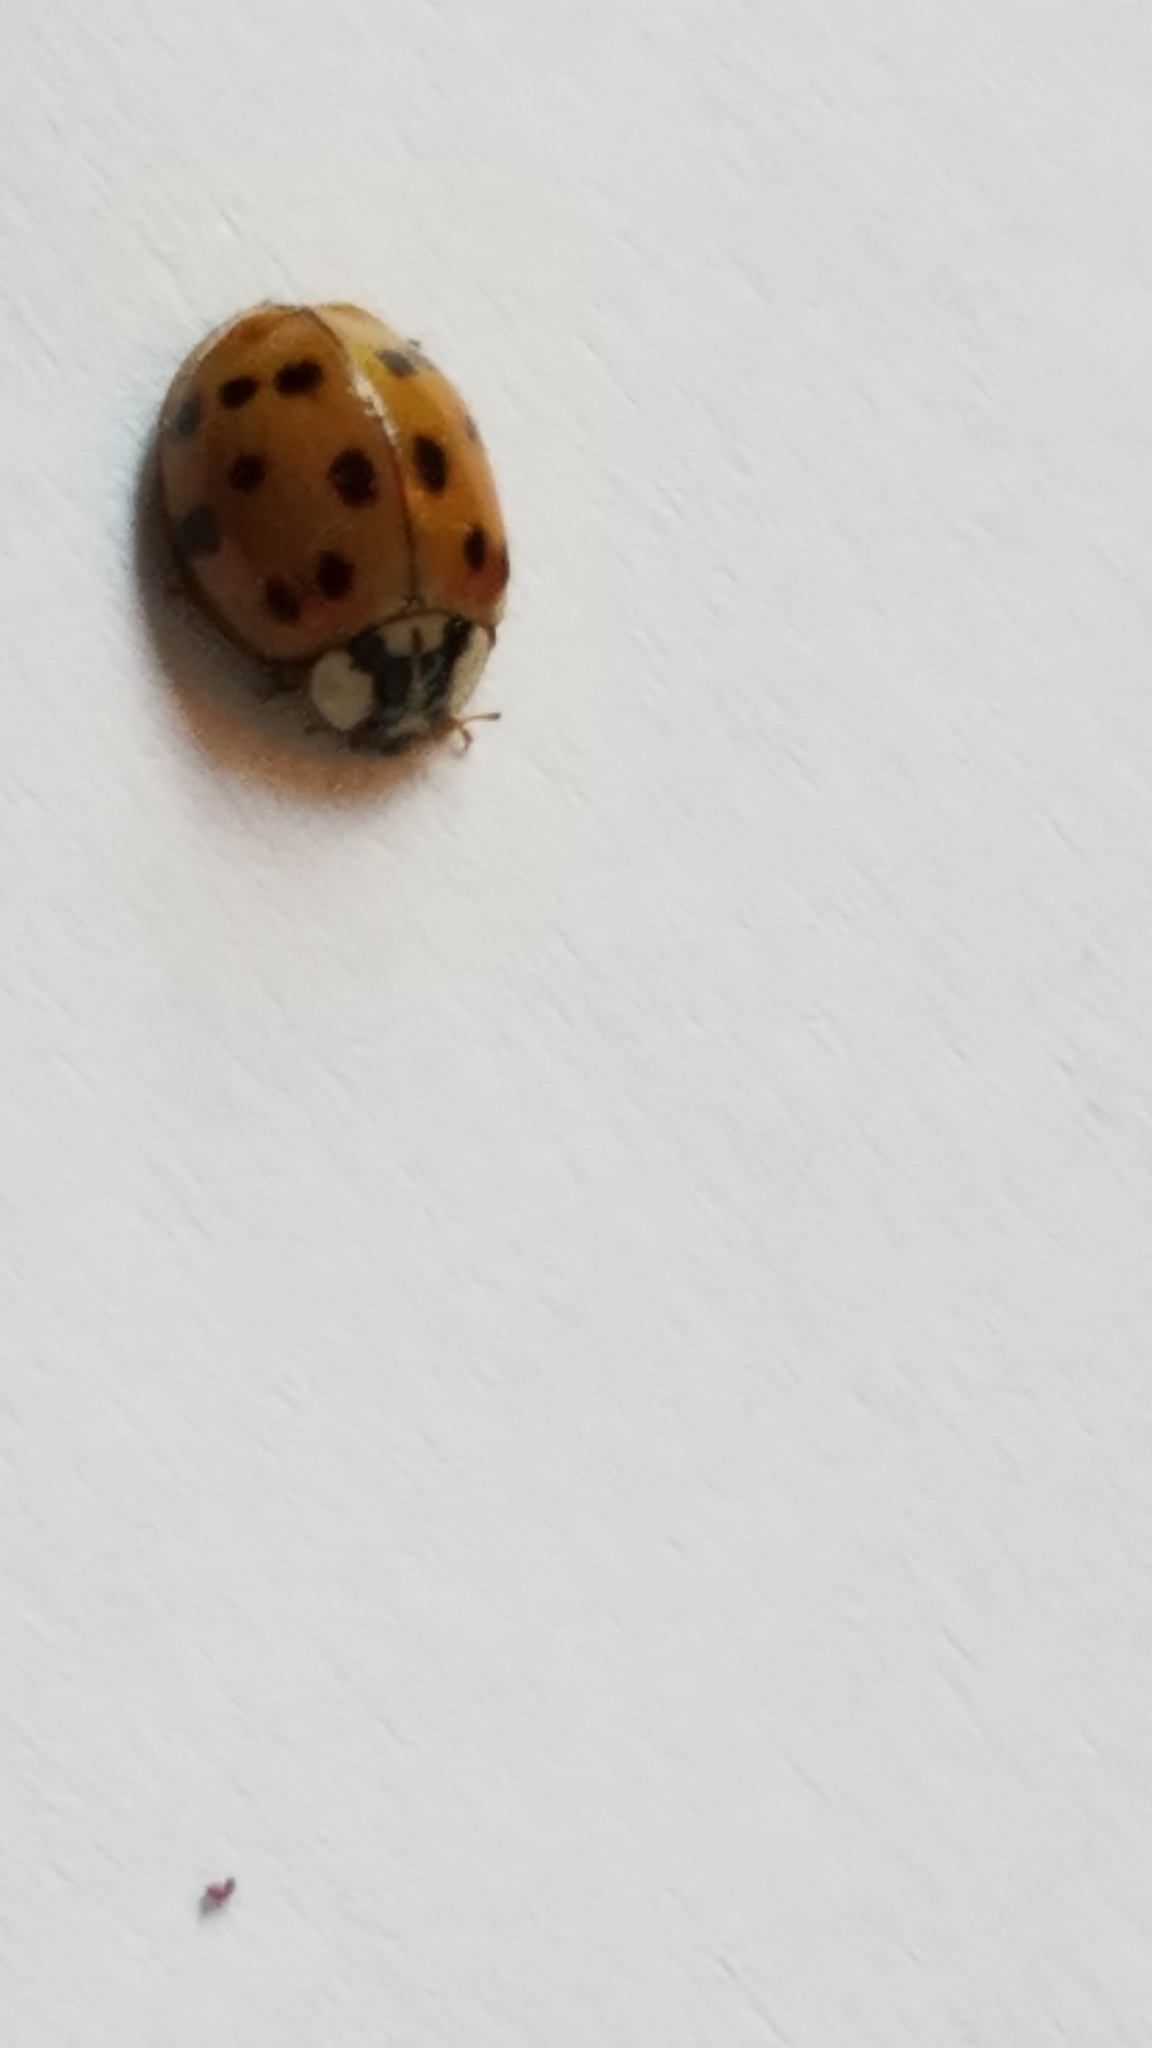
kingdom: Animalia
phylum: Arthropoda
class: Insecta
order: Coleoptera
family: Coccinellidae
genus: Harmonia
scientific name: Harmonia axyridis
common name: Harlequin ladybird
